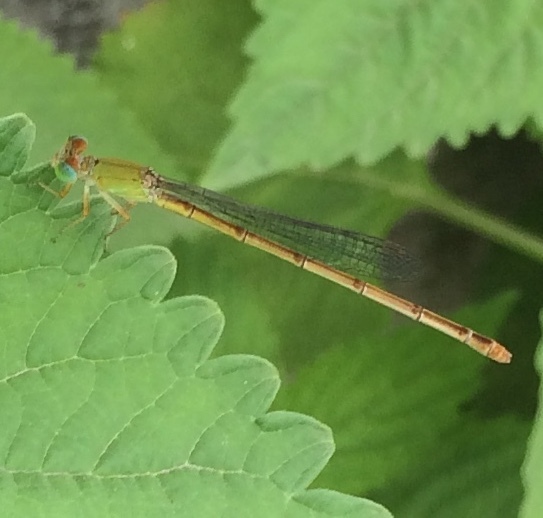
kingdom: Animalia
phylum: Arthropoda
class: Insecta
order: Odonata
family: Coenagrionidae
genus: Ceriagrion
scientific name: Ceriagrion coromandelianum
